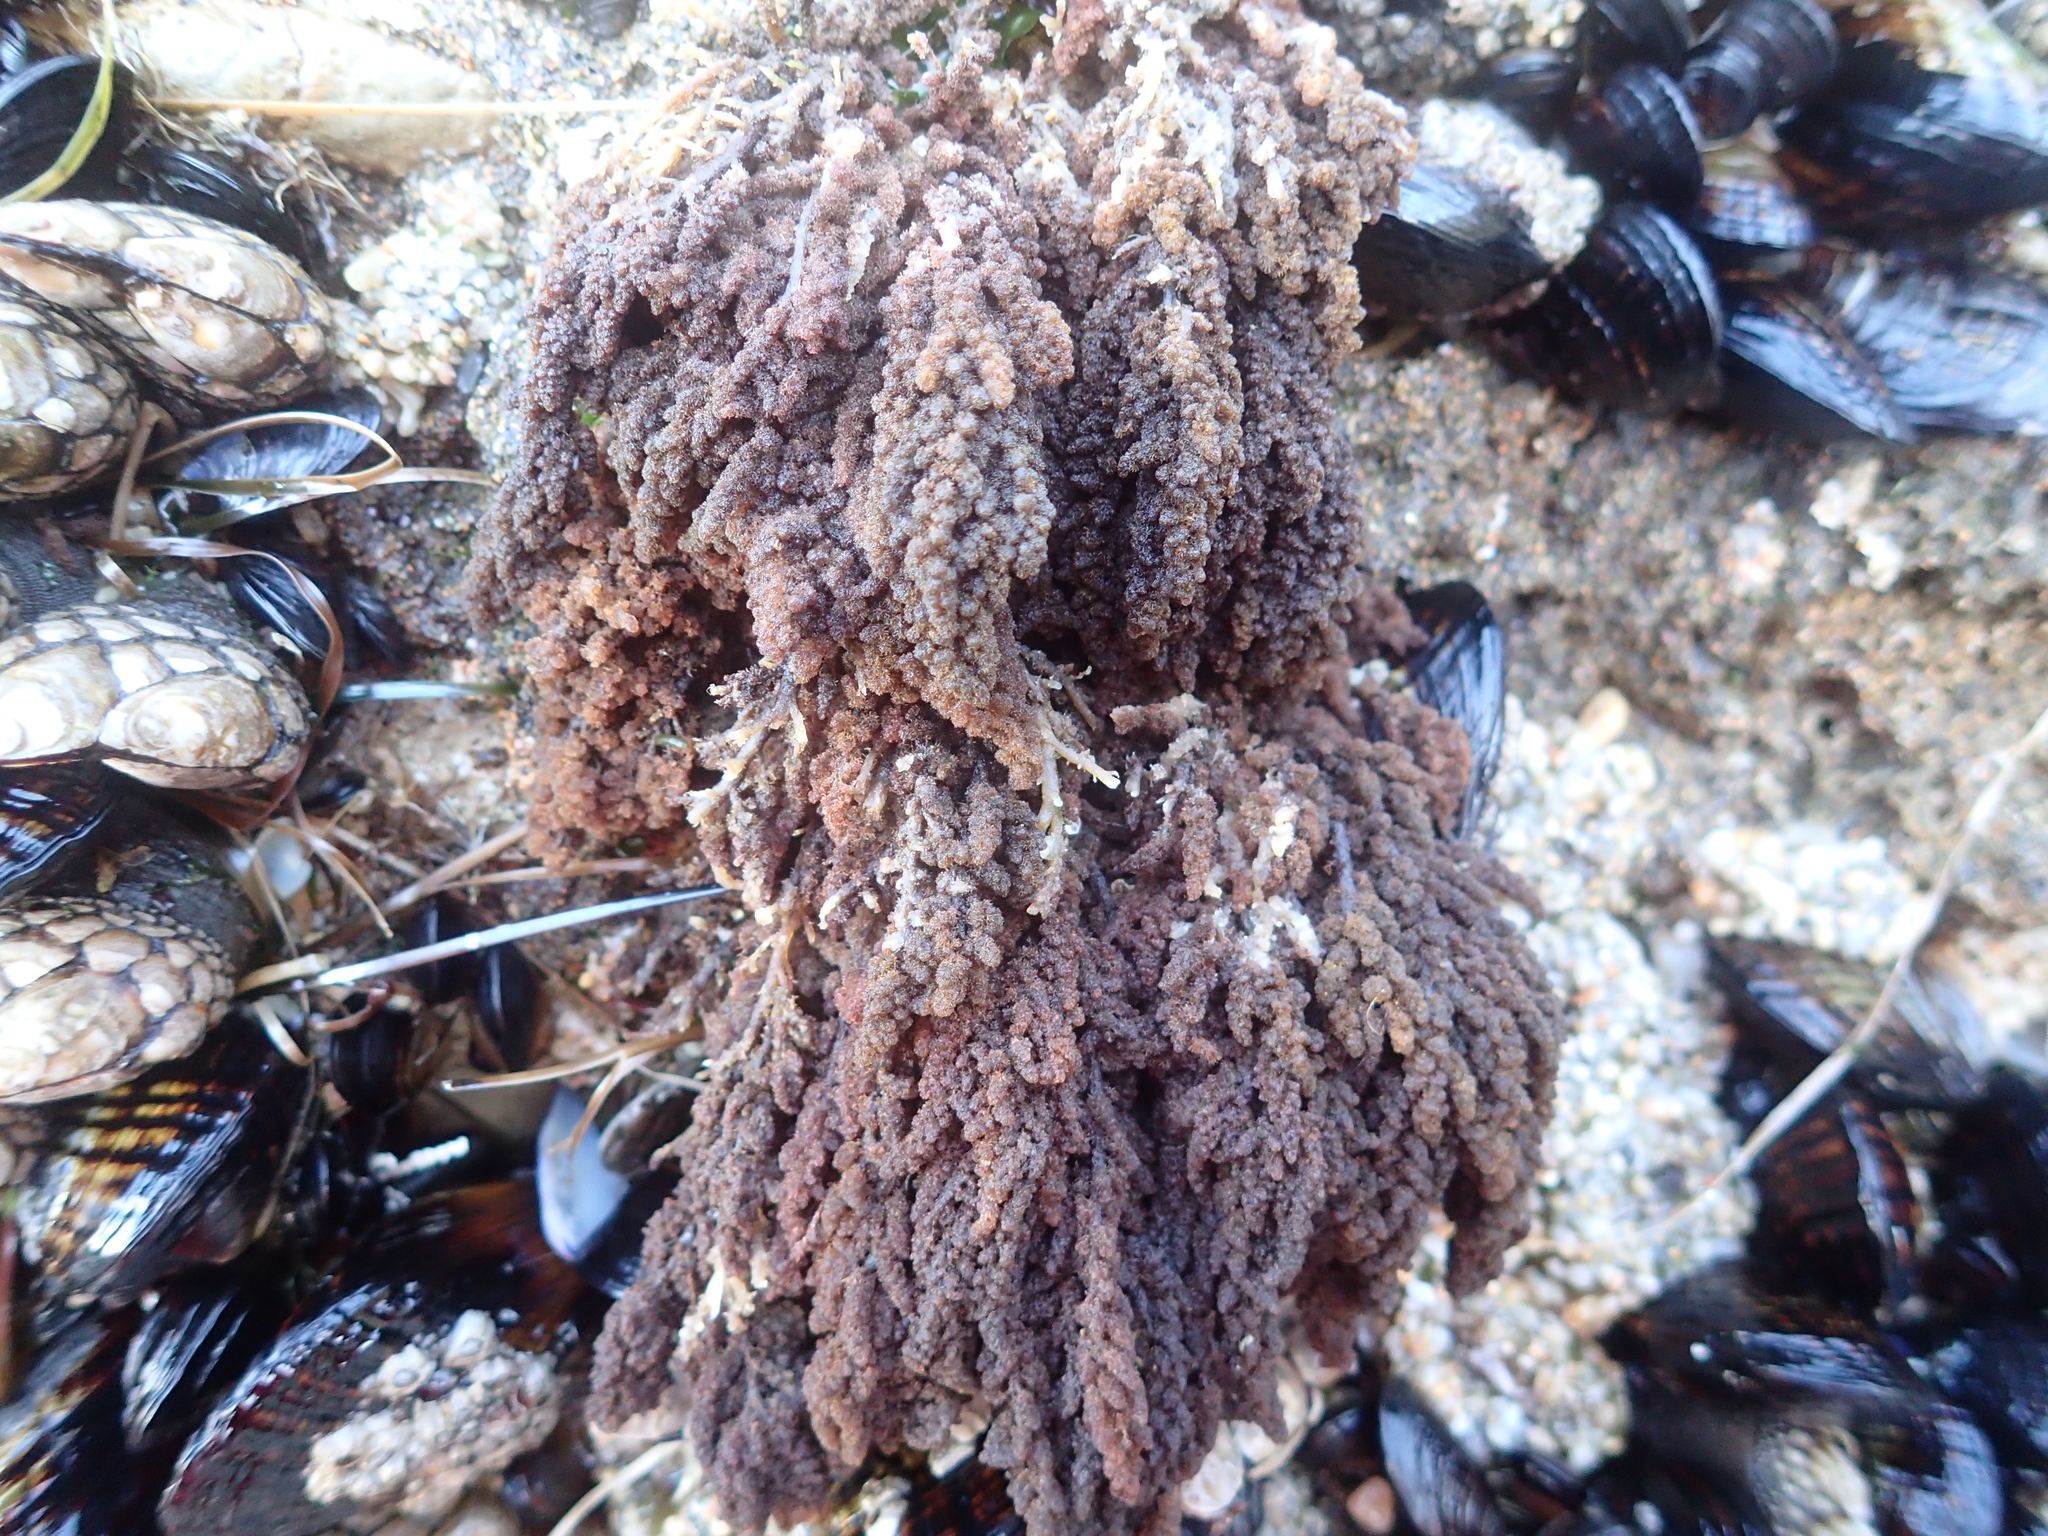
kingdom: Plantae
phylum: Rhodophyta
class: Florideophyceae
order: Ceramiales
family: Callithamniaceae
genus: Callithamnion
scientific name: Callithamnion pikeanum
